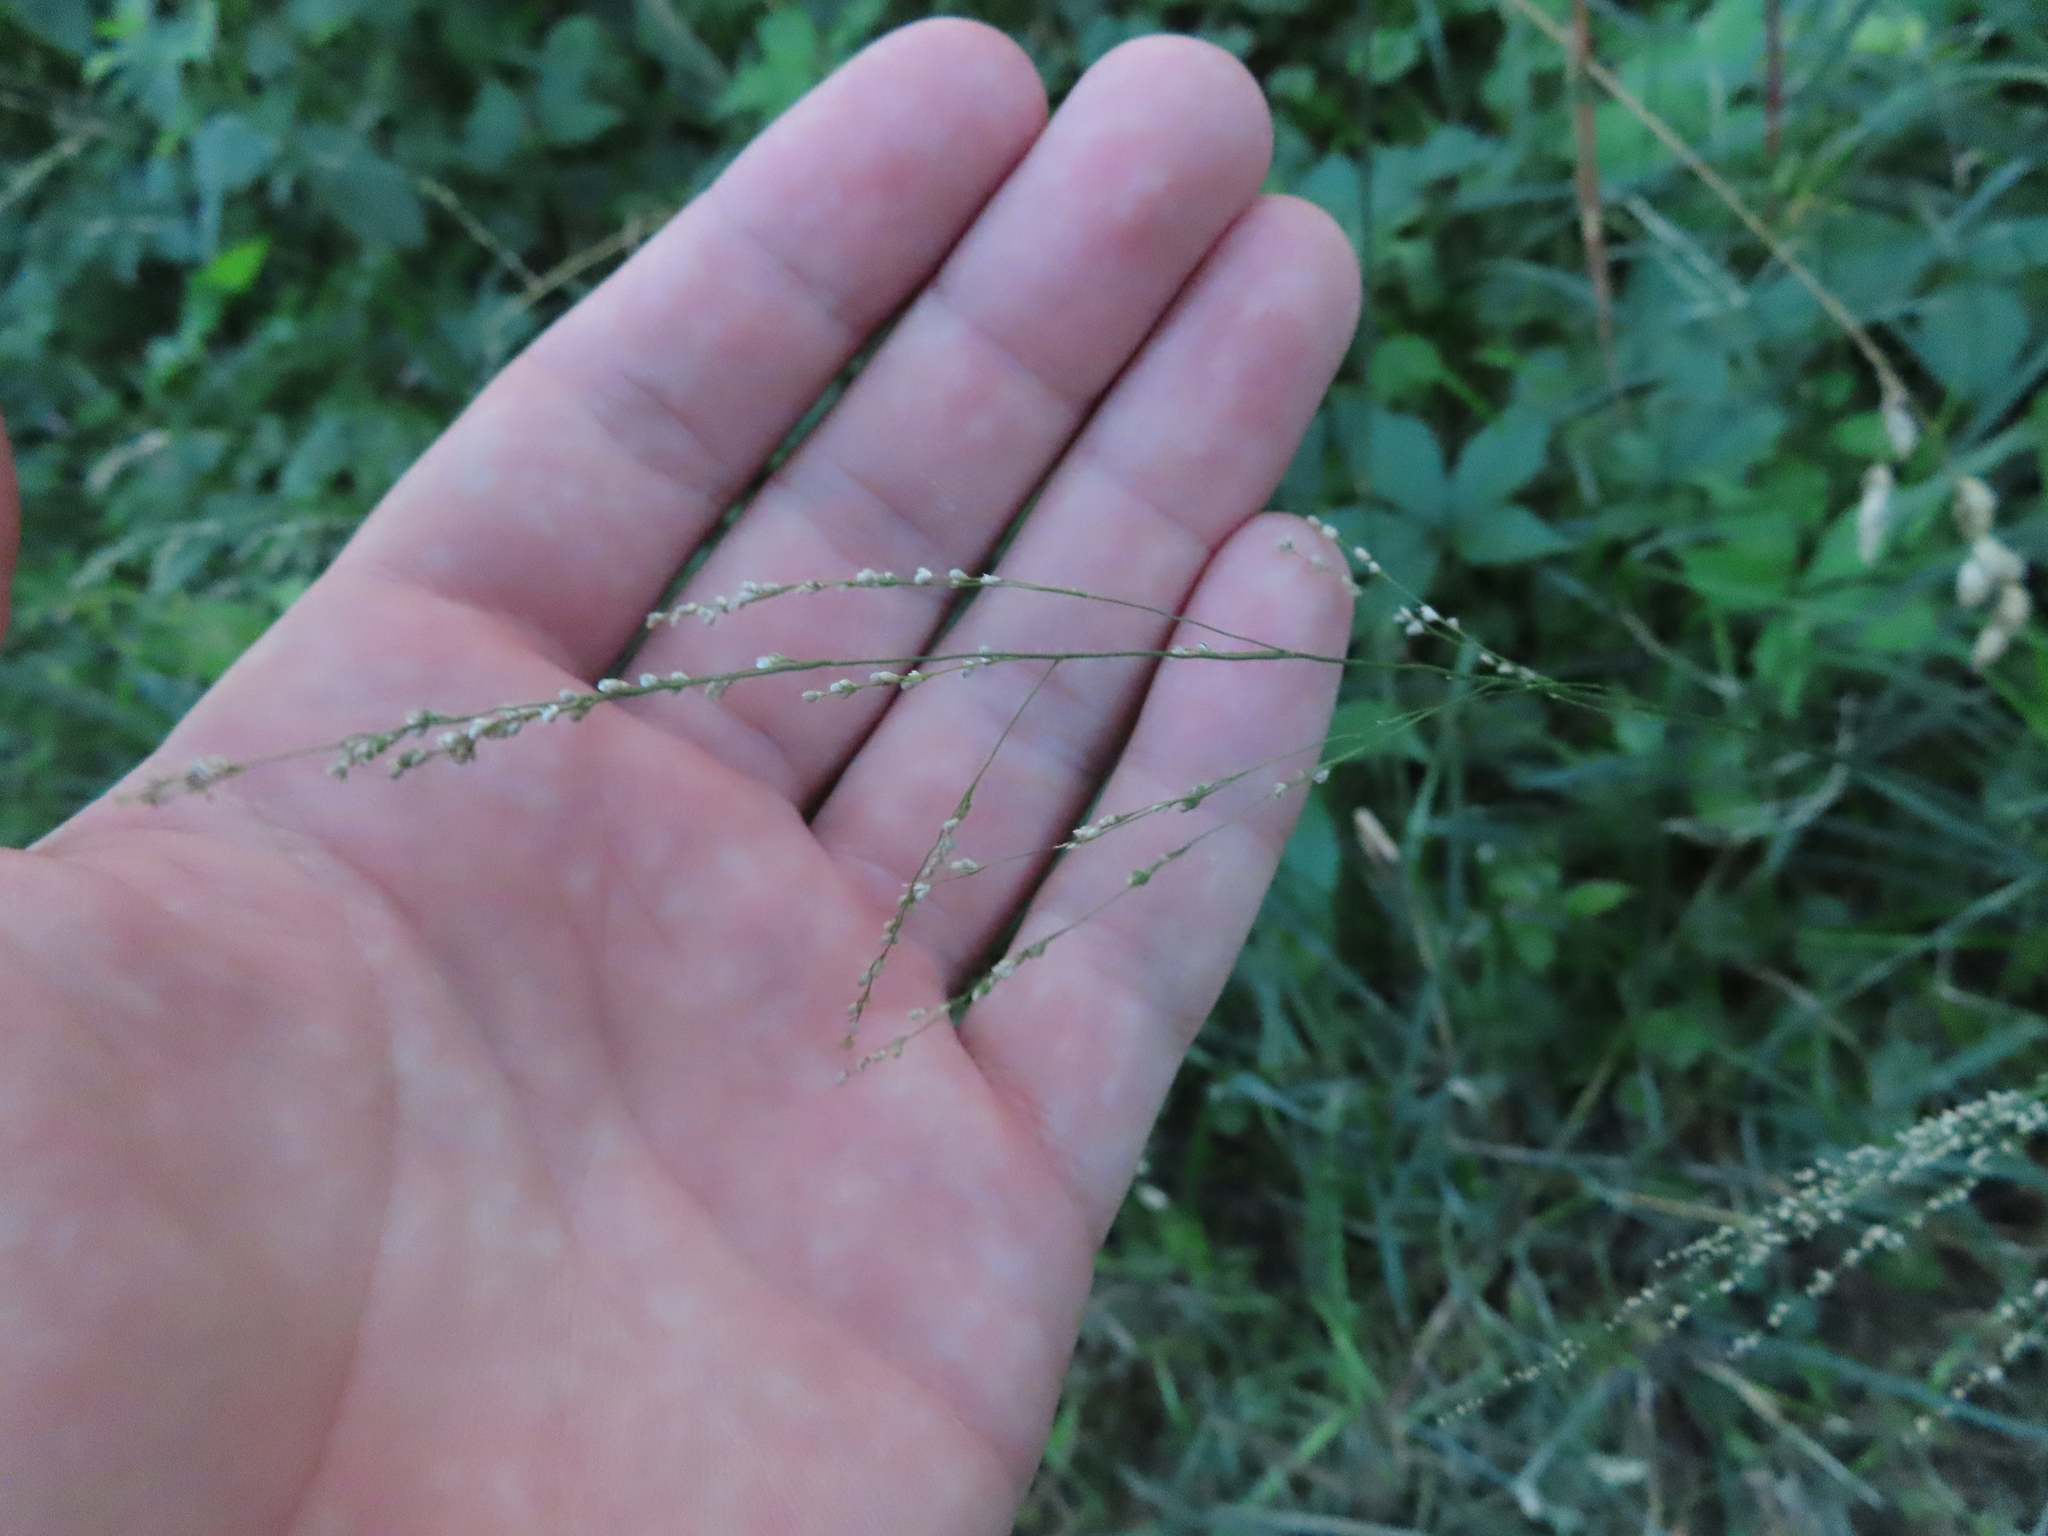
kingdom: Plantae
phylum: Tracheophyta
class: Liliopsida
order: Poales
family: Poaceae
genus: Glyceria
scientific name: Glyceria striata
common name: Fowl manna grass
